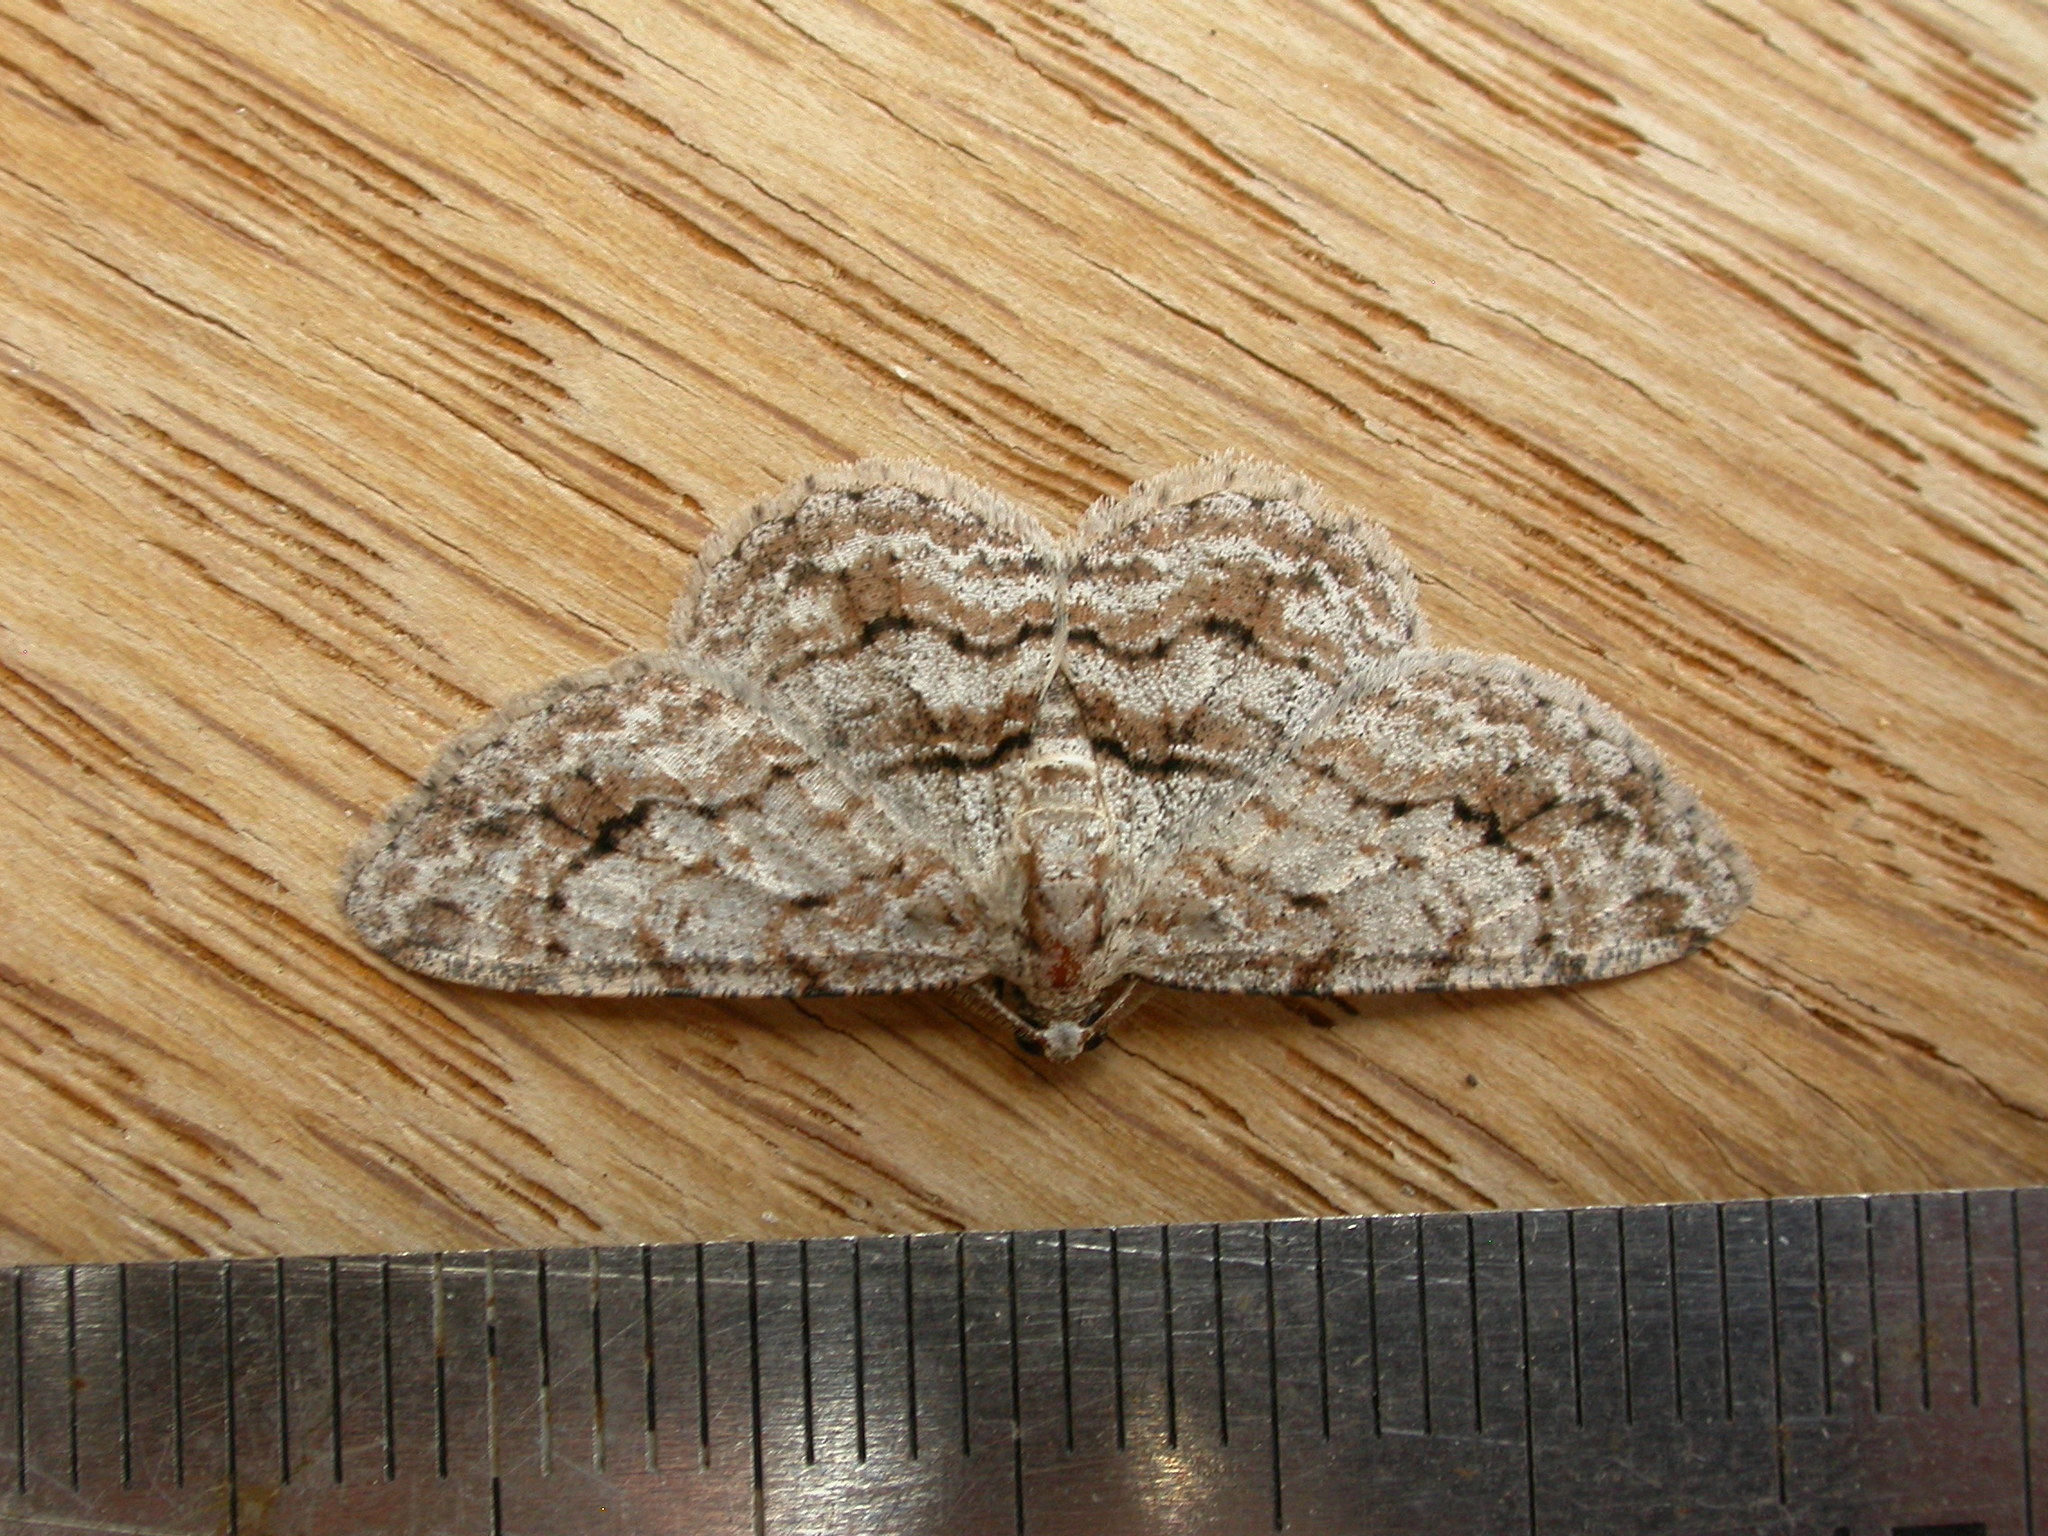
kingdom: Animalia
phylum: Arthropoda
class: Insecta
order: Lepidoptera
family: Geometridae
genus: Didymoctenia
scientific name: Didymoctenia exsuperata
